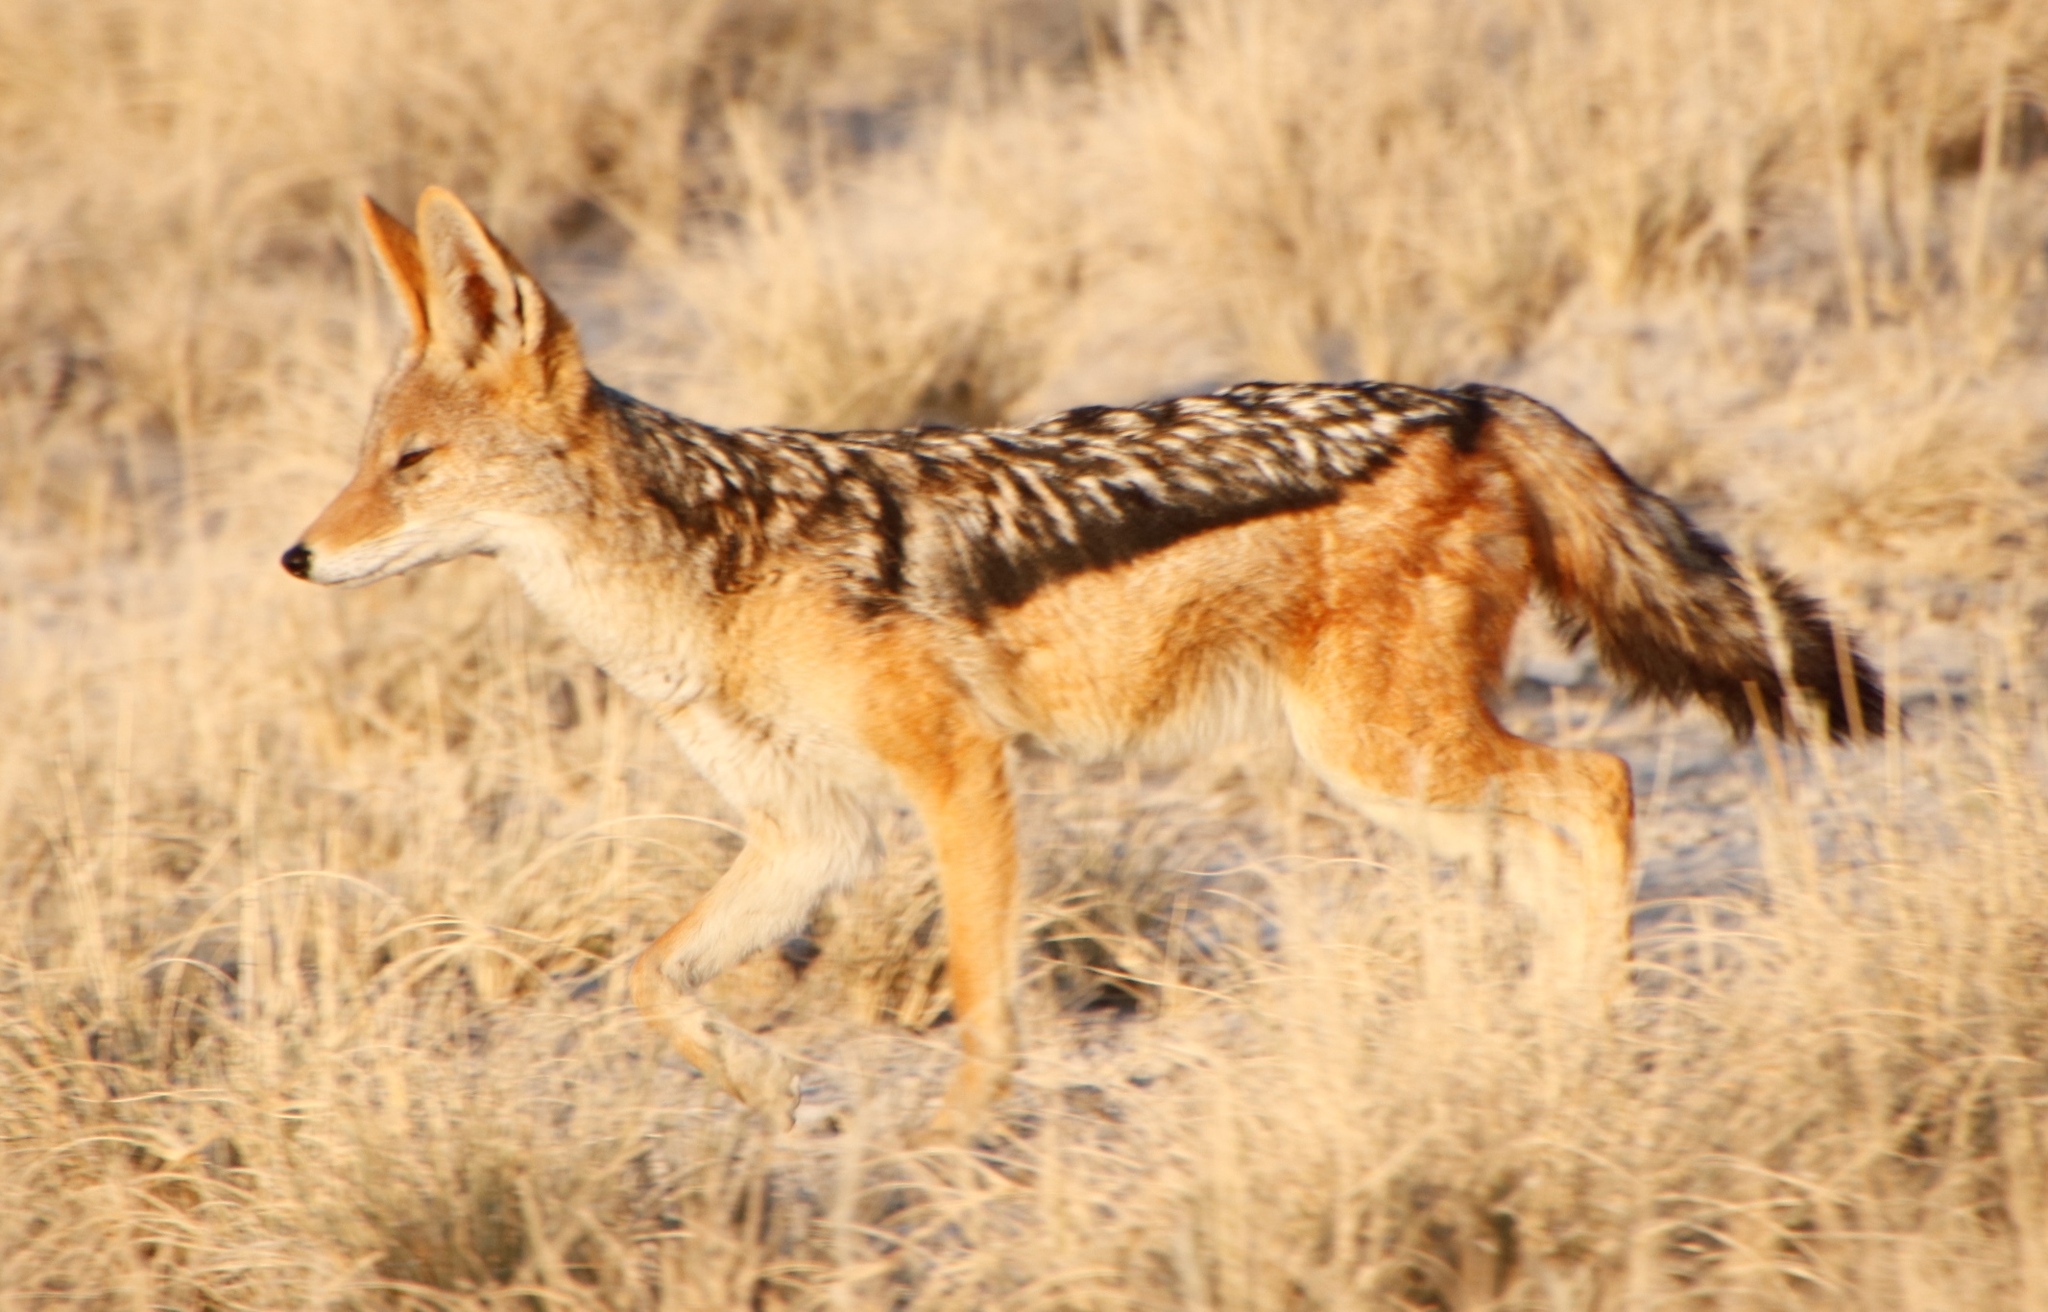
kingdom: Animalia
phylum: Chordata
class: Mammalia
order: Carnivora
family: Canidae
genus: Lupulella
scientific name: Lupulella
